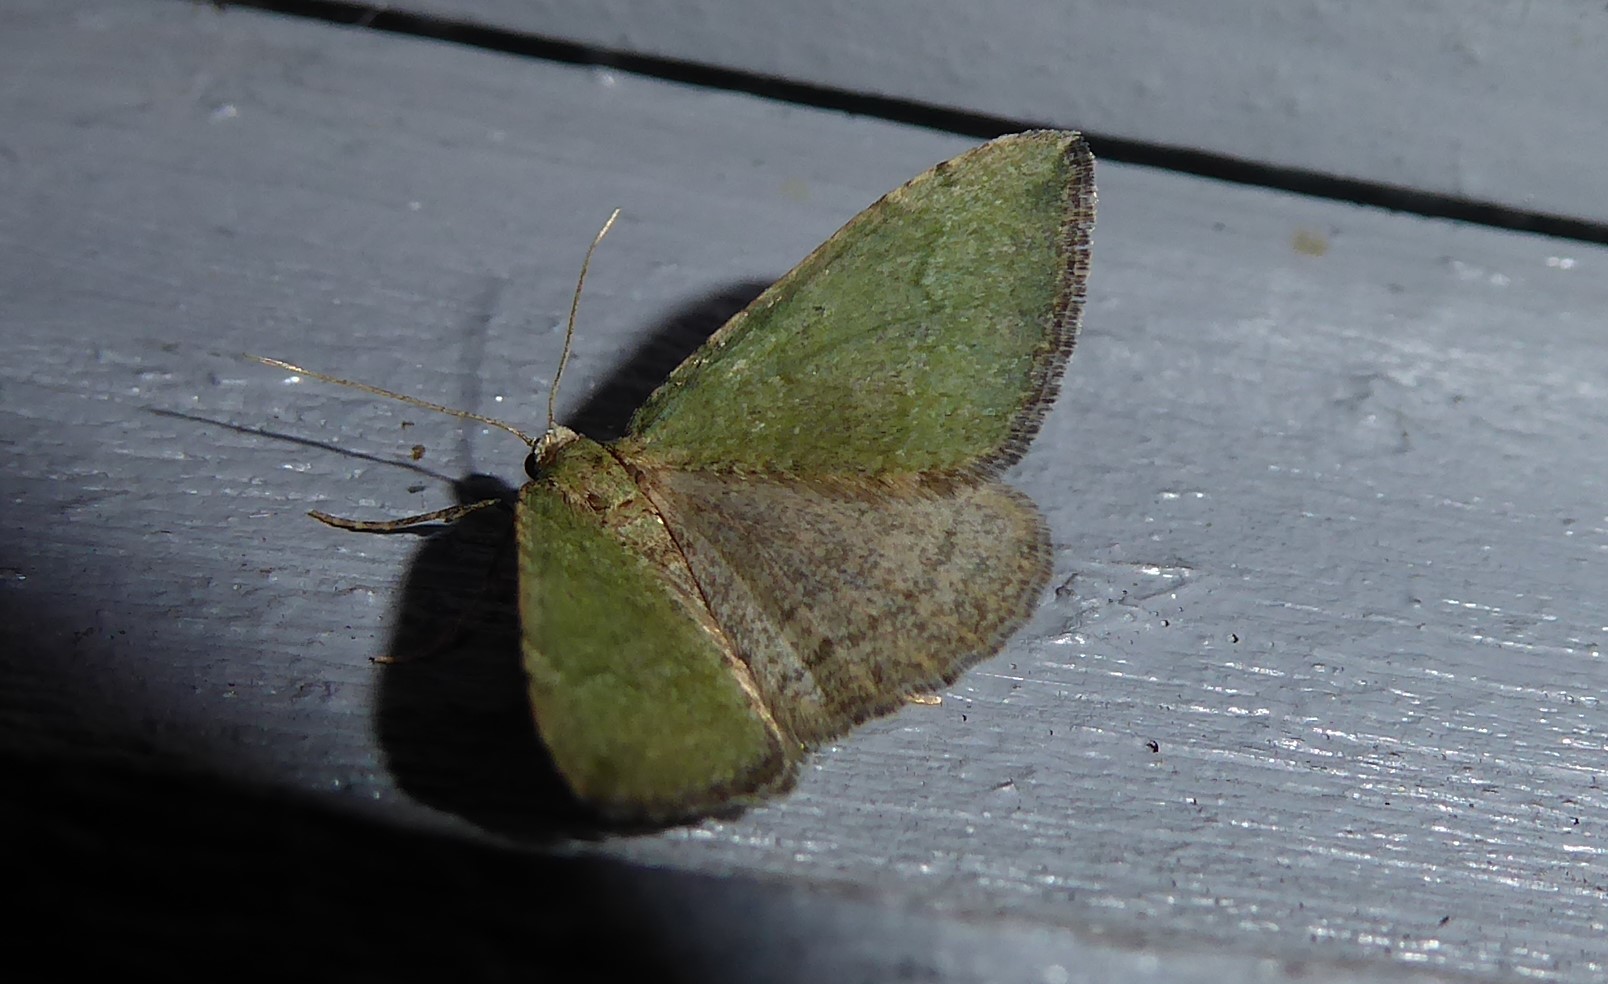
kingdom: Animalia
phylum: Arthropoda
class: Insecta
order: Lepidoptera
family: Geometridae
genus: Epyaxa
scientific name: Epyaxa rosearia
